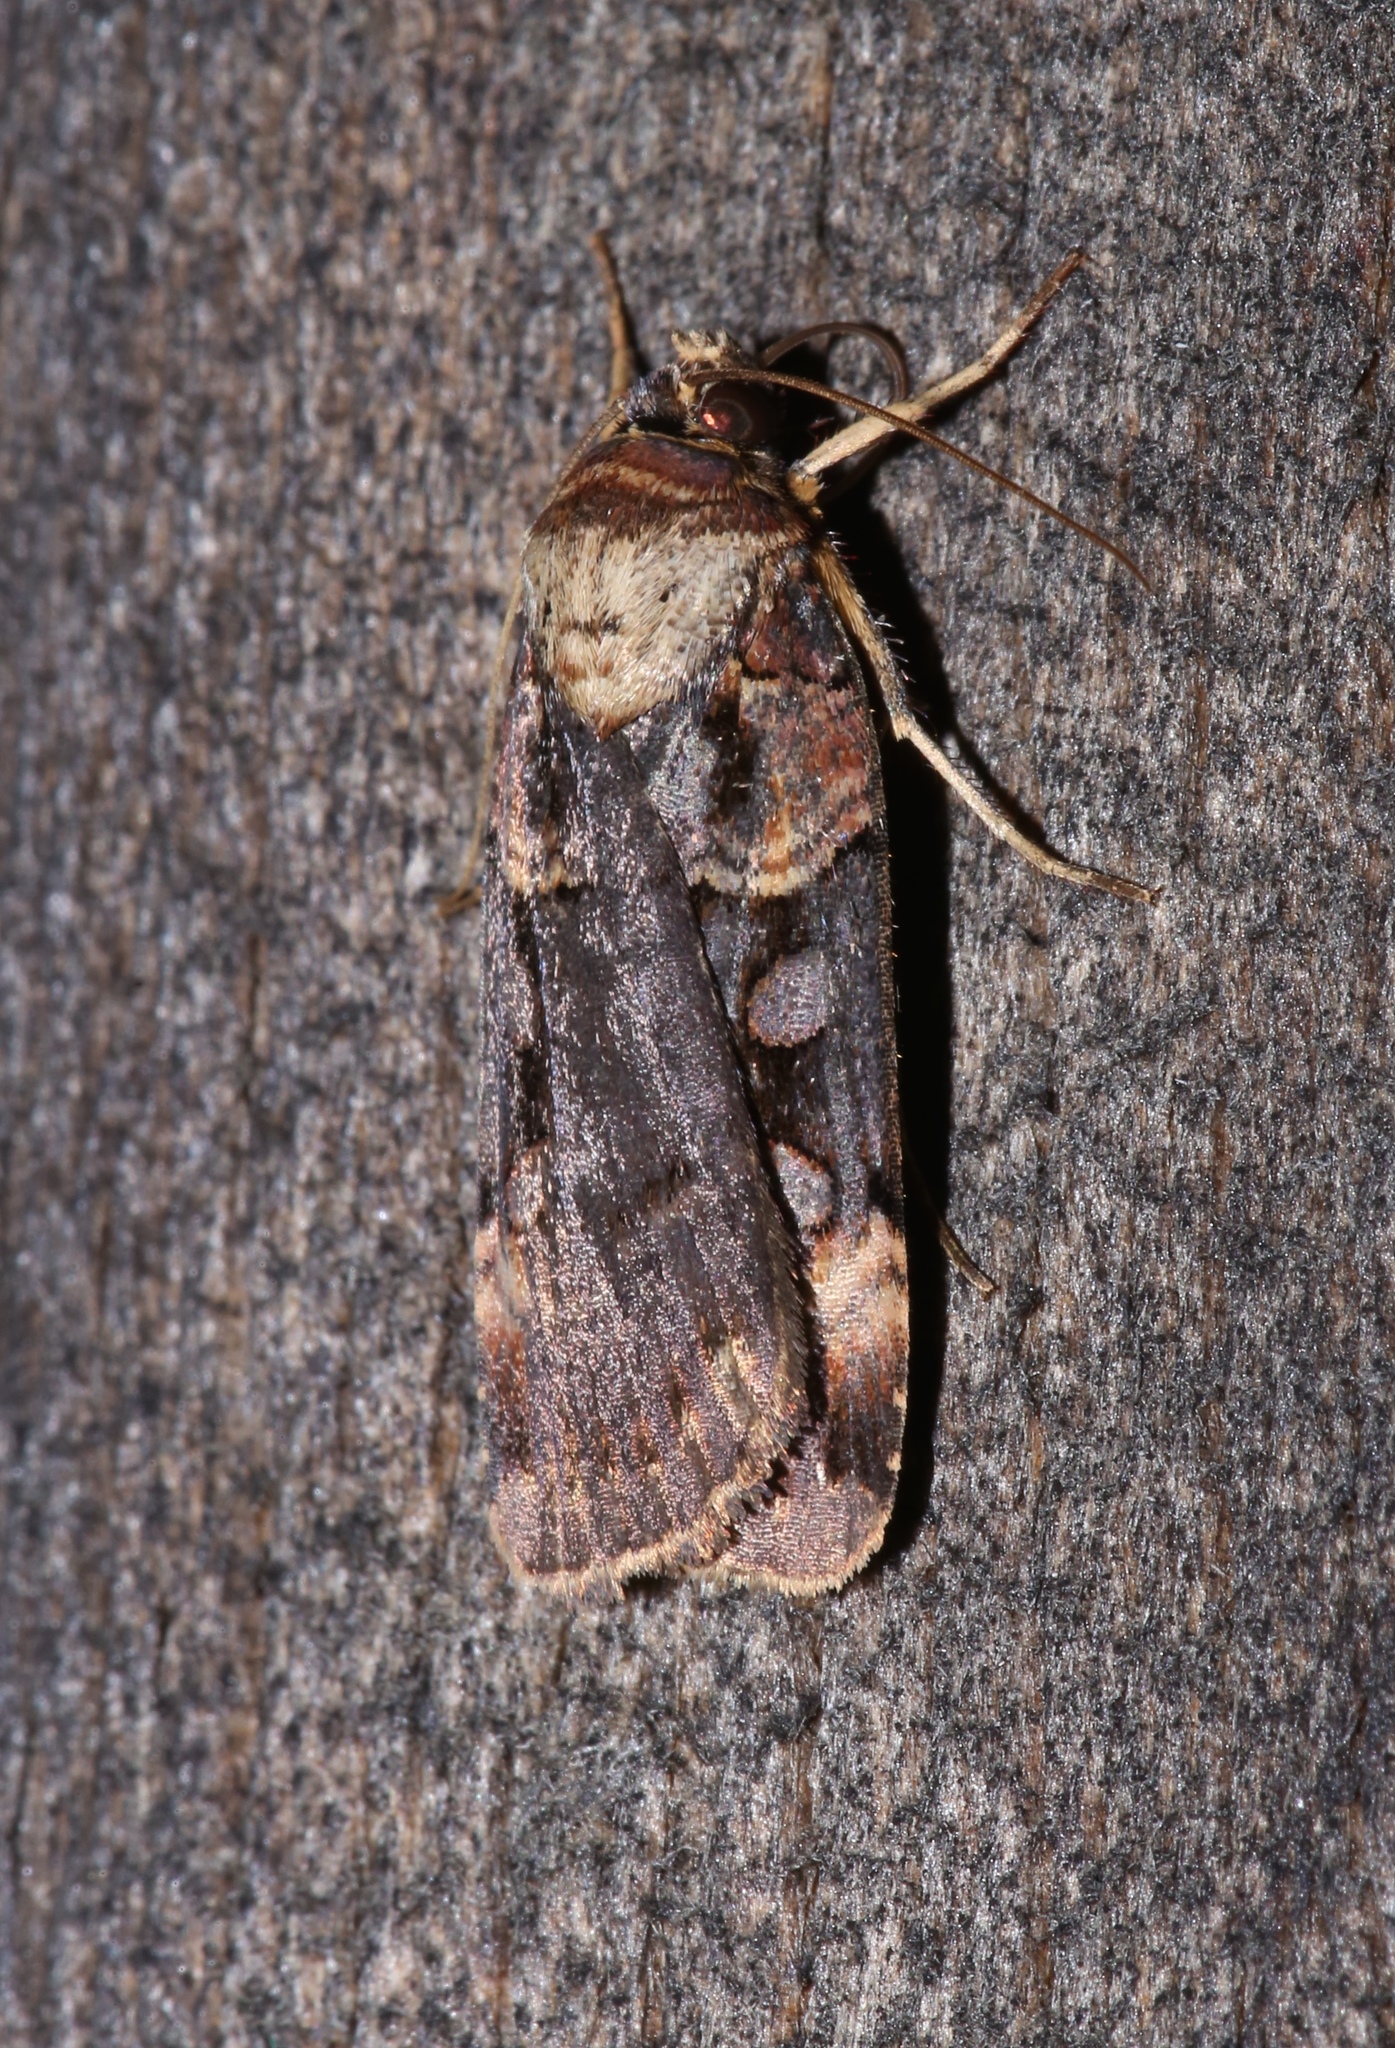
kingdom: Animalia
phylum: Arthropoda
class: Insecta
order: Lepidoptera
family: Noctuidae
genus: Pseudohermonassa
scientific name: Pseudohermonassa bicarnea
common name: Pink spotted dart
